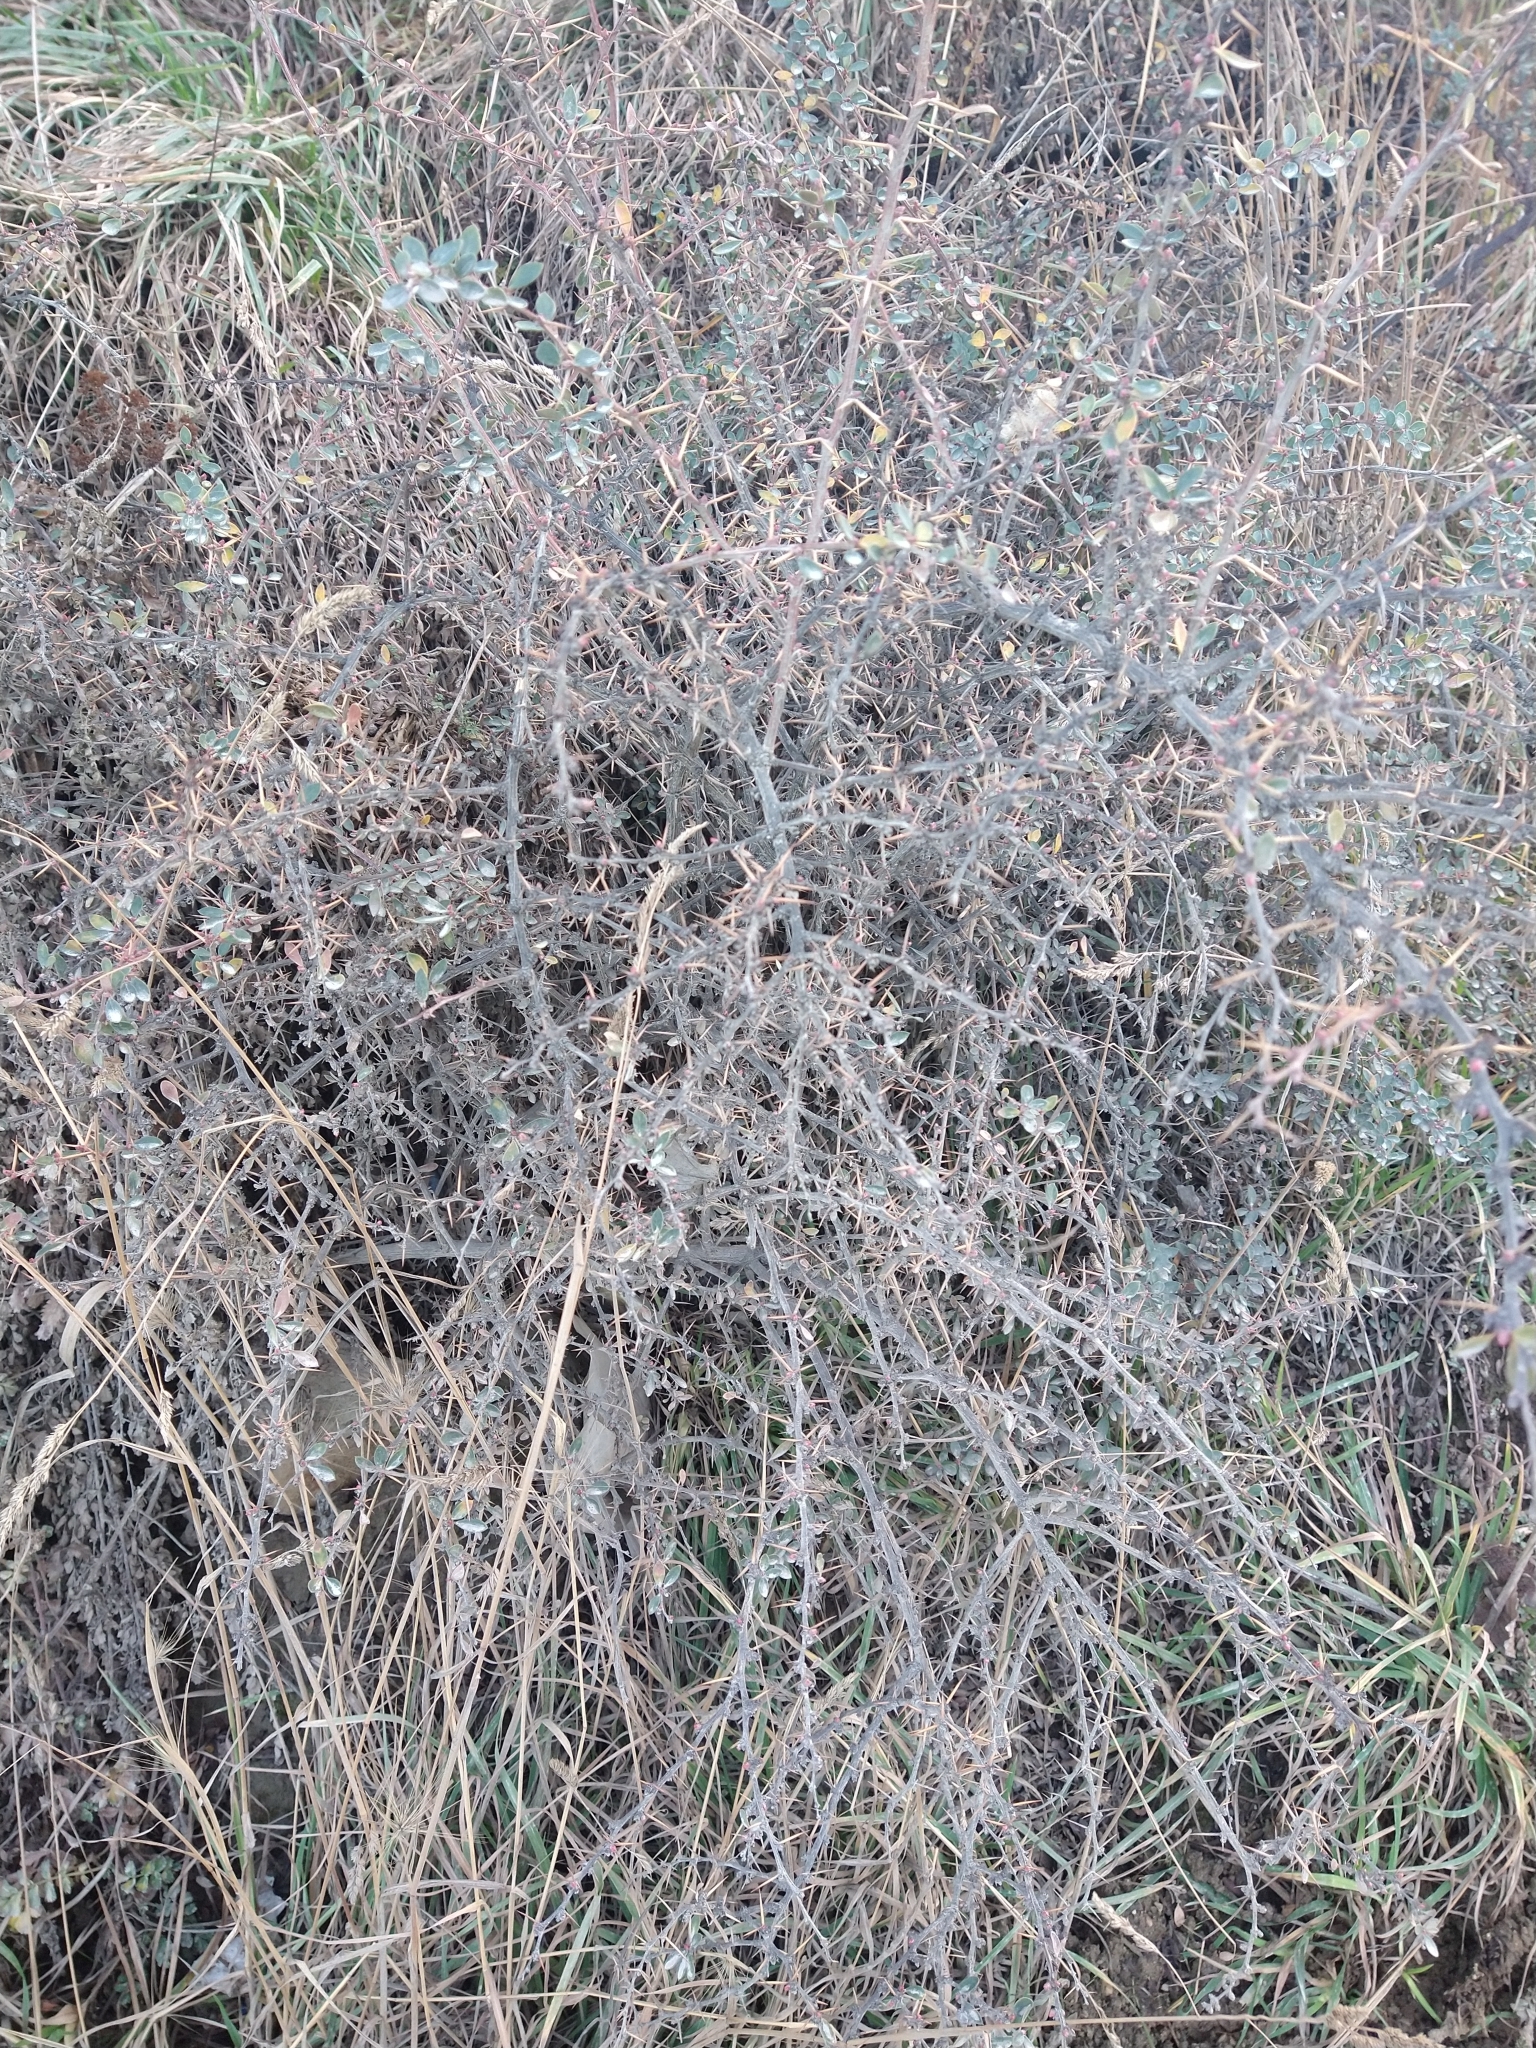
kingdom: Plantae
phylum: Tracheophyta
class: Magnoliopsida
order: Ranunculales
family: Berberidaceae
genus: Berberis
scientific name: Berberis microphylla
